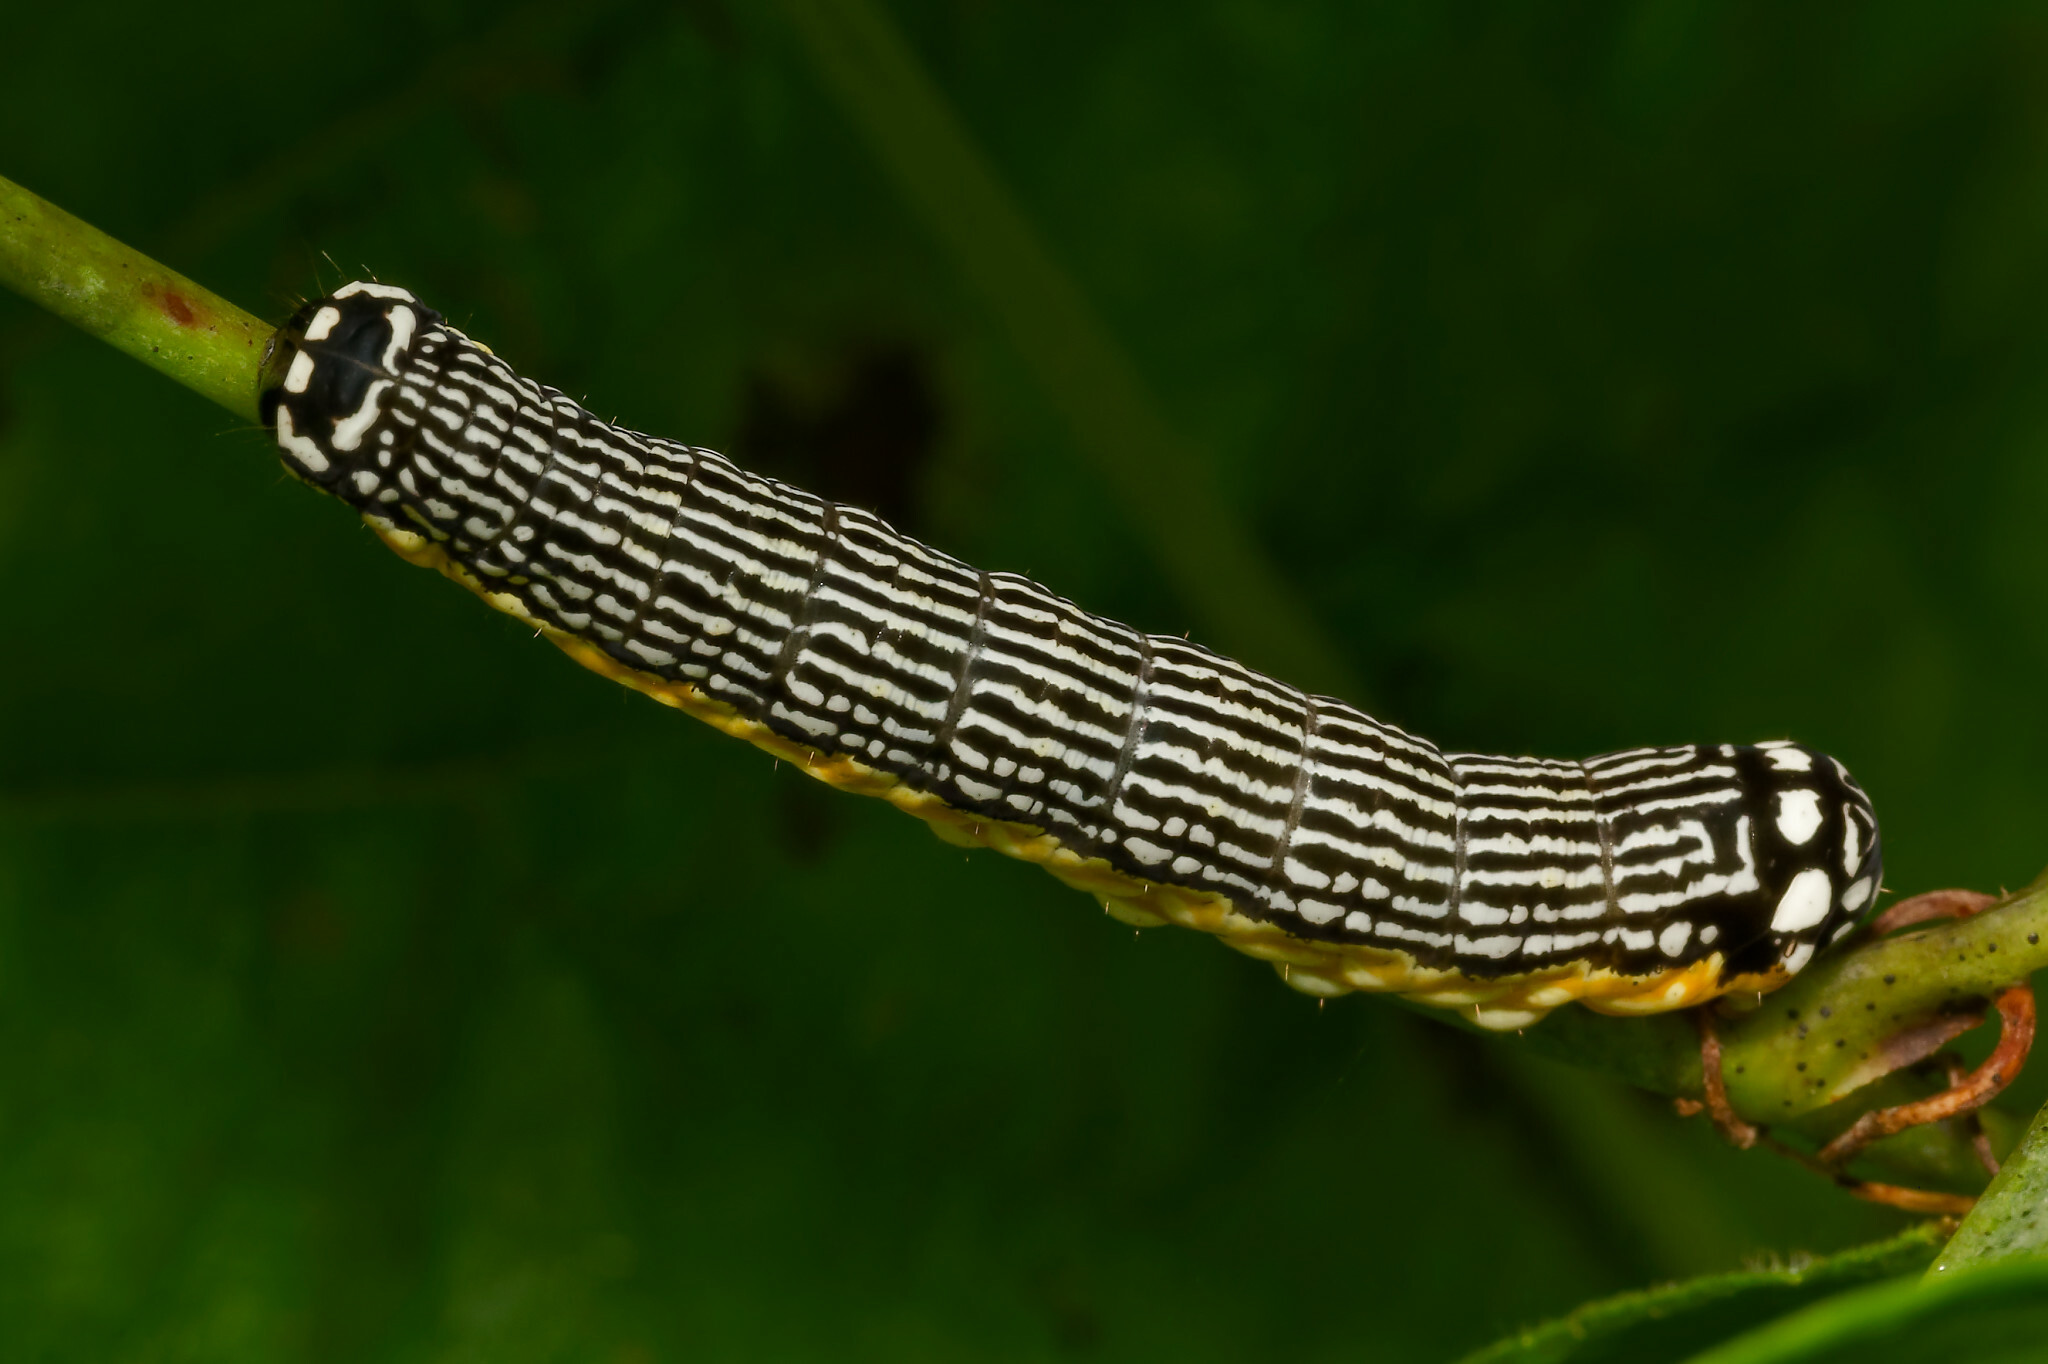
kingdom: Animalia
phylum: Arthropoda
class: Insecta
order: Lepidoptera
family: Noctuidae
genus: Phosphila
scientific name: Phosphila turbulenta
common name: Turbulent phosphila moth
